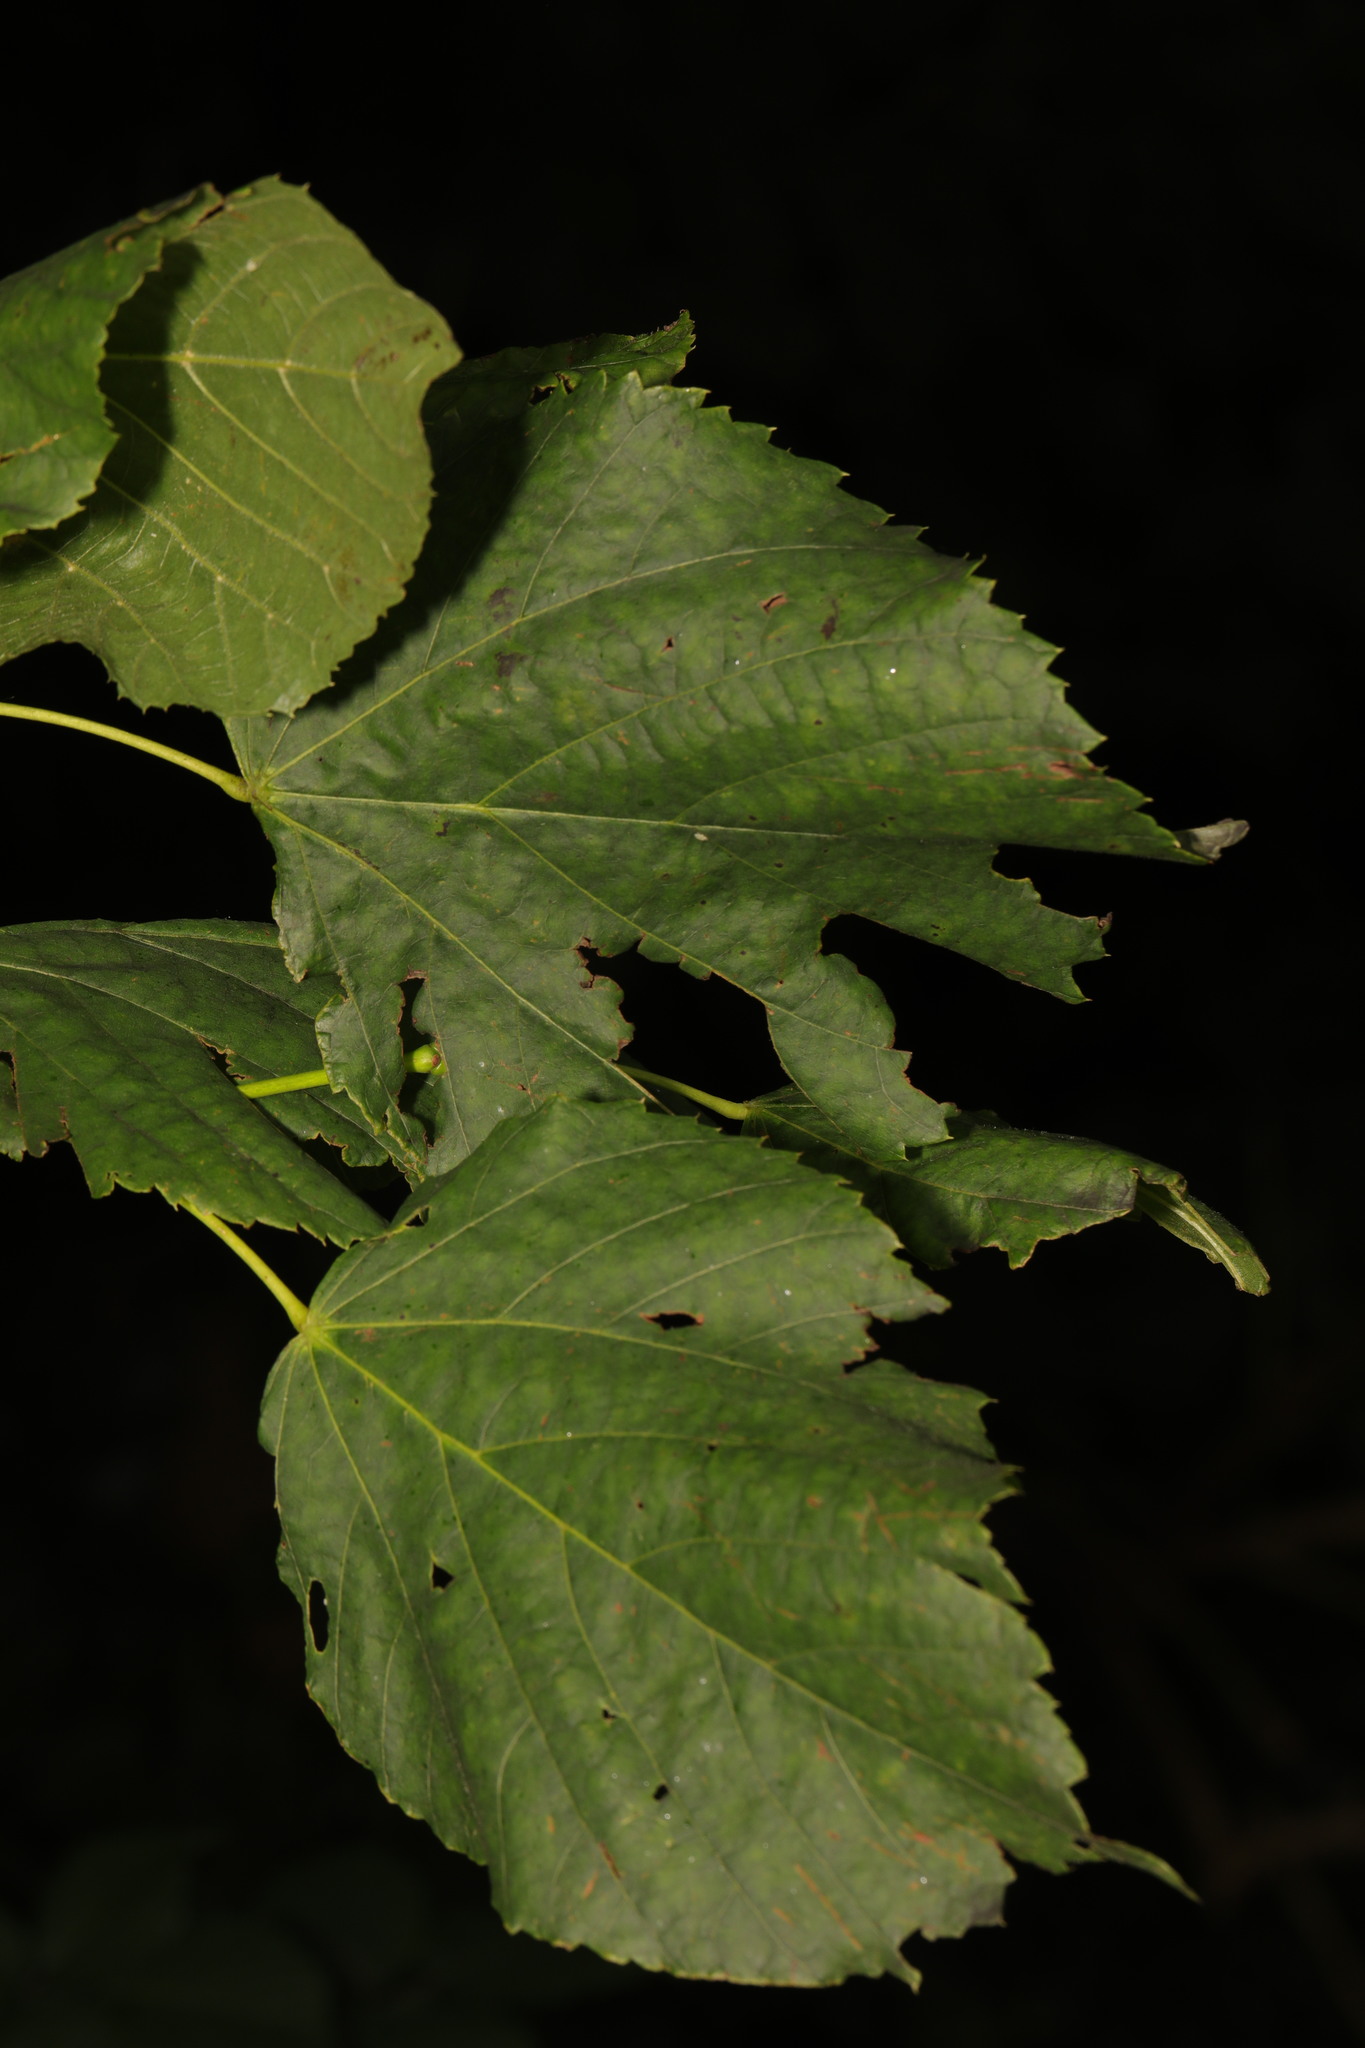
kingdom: Plantae
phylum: Tracheophyta
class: Magnoliopsida
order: Malvales
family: Malvaceae
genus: Tilia
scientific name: Tilia europaea
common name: European linden
